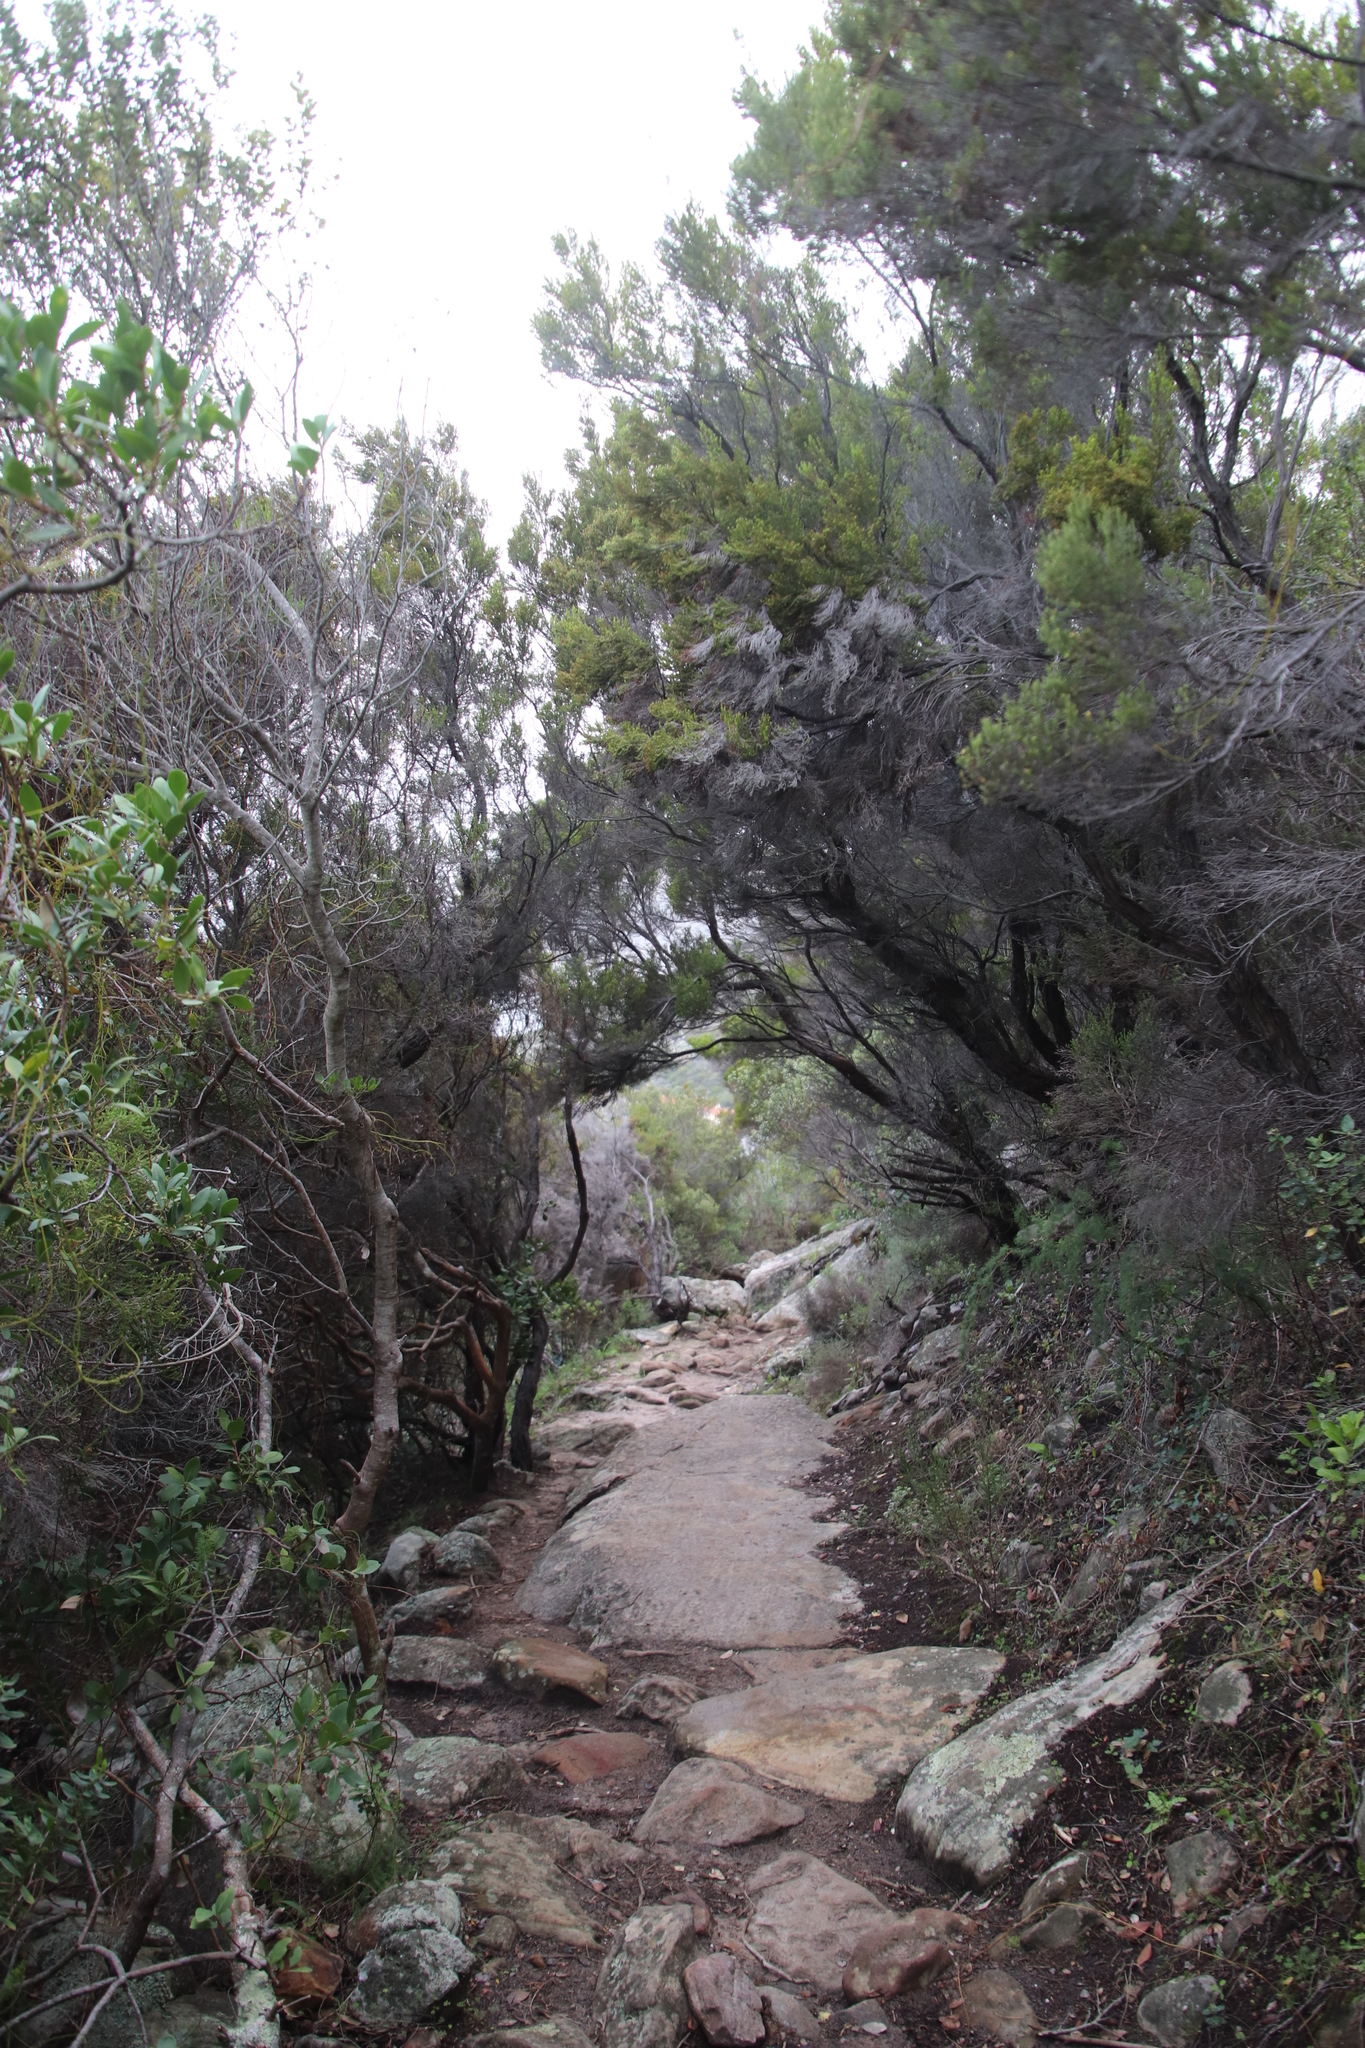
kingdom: Plantae
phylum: Tracheophyta
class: Magnoliopsida
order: Ericales
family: Ericaceae
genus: Erica
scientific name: Erica tristis
